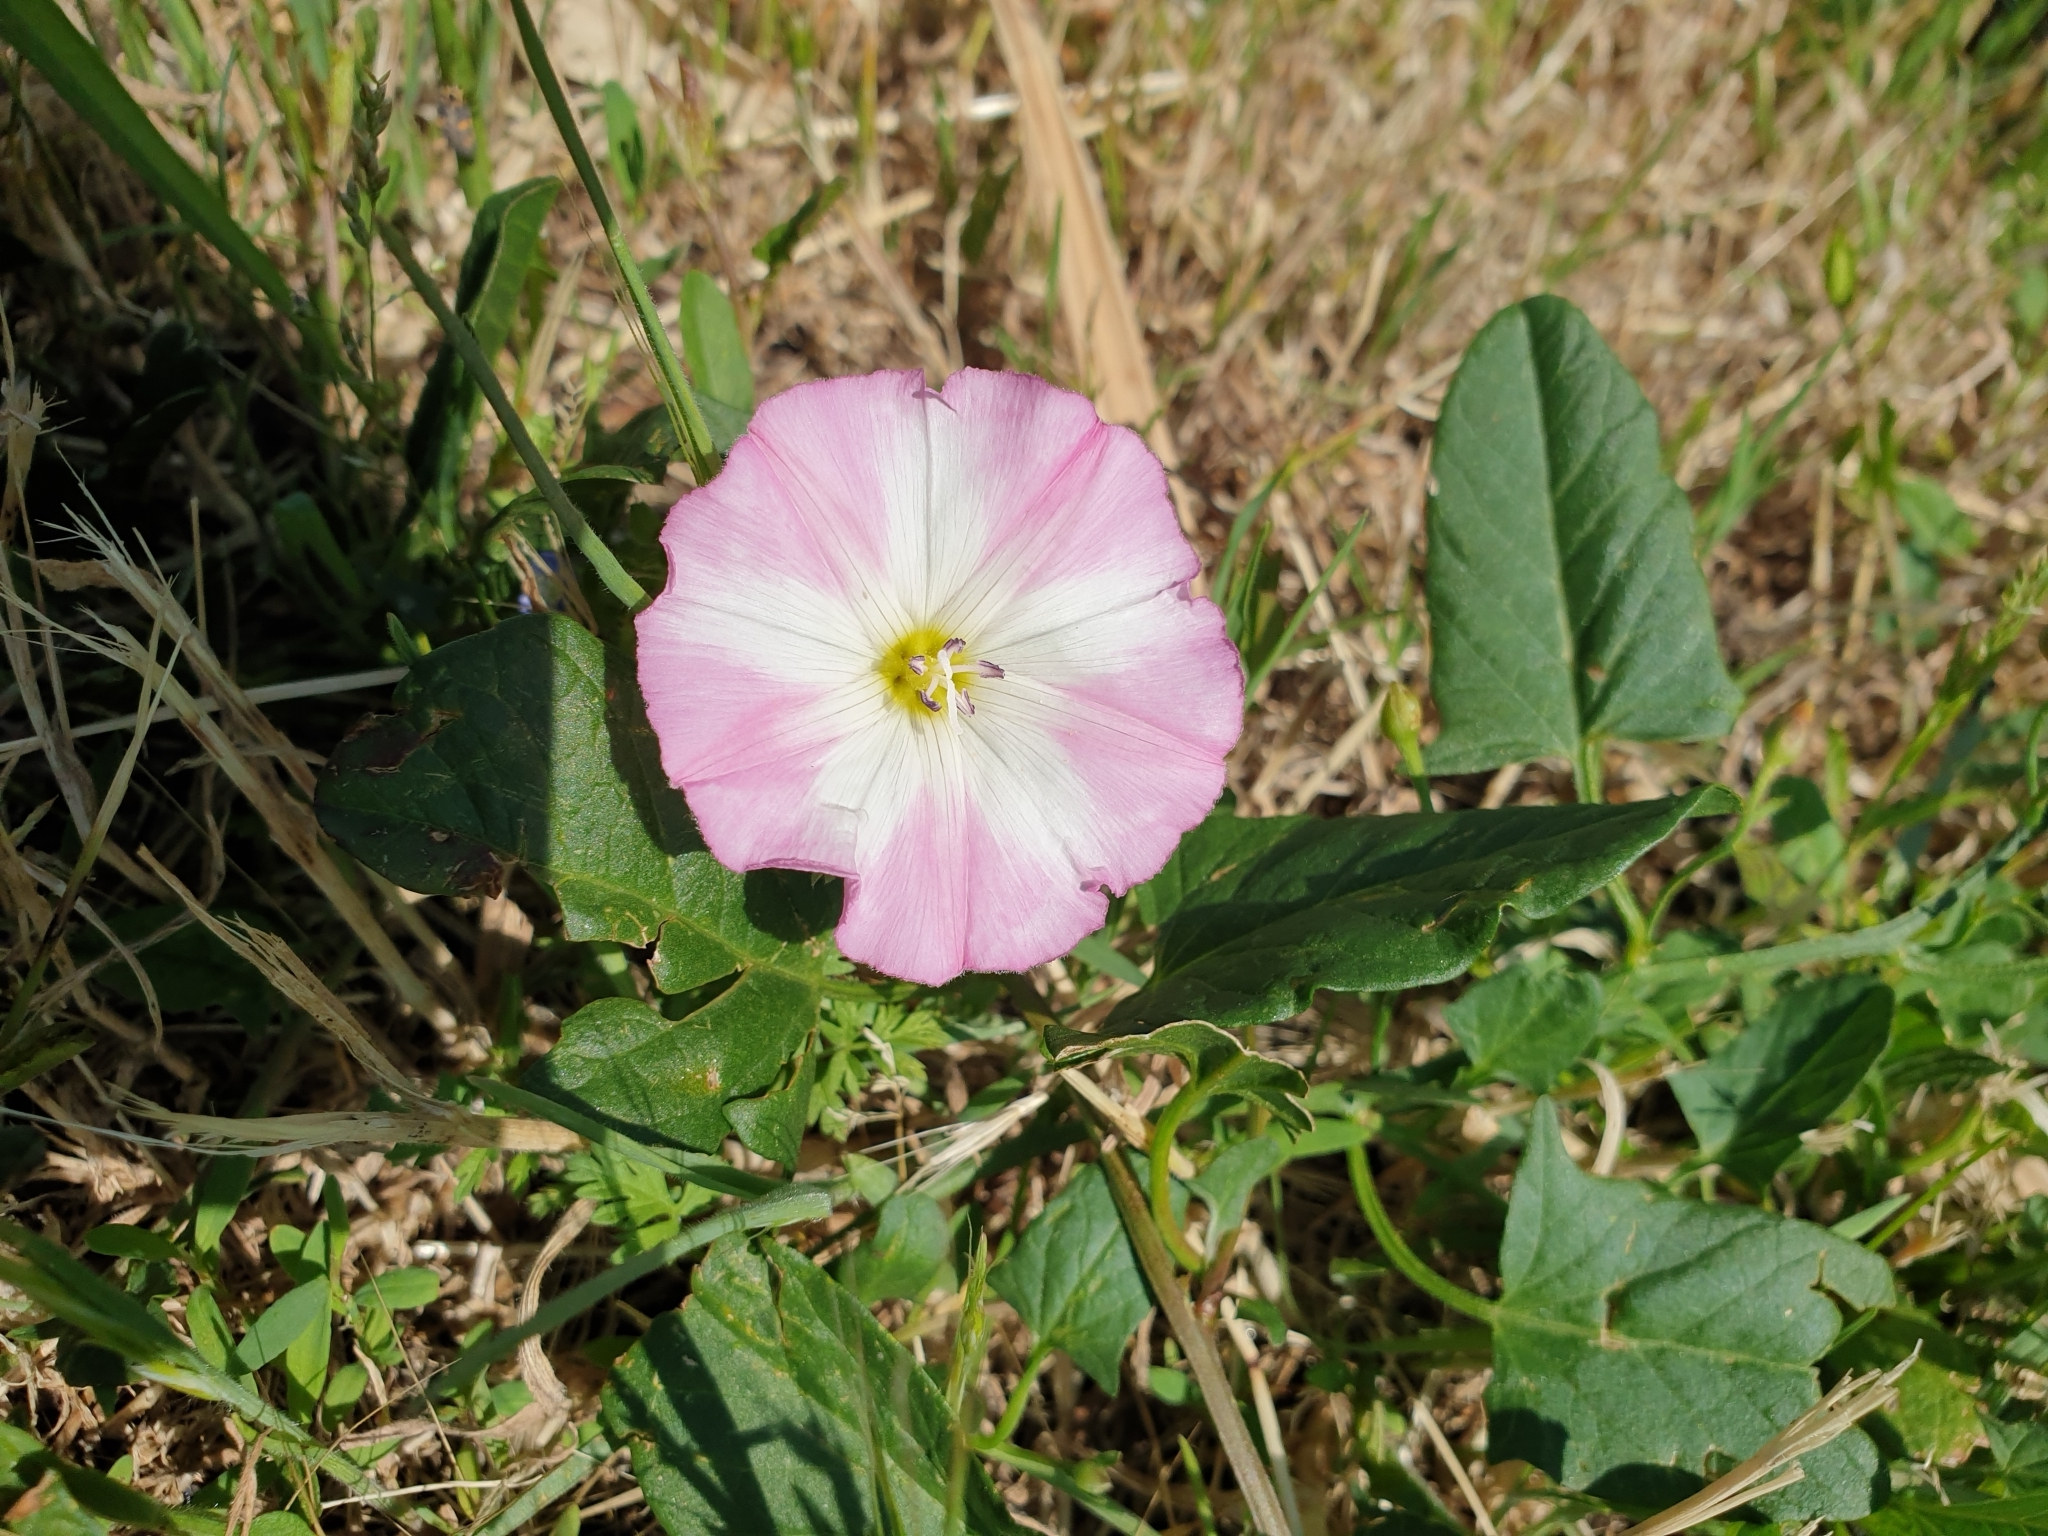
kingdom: Plantae
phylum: Tracheophyta
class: Magnoliopsida
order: Solanales
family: Convolvulaceae
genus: Convolvulus
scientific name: Convolvulus arvensis
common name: Field bindweed
